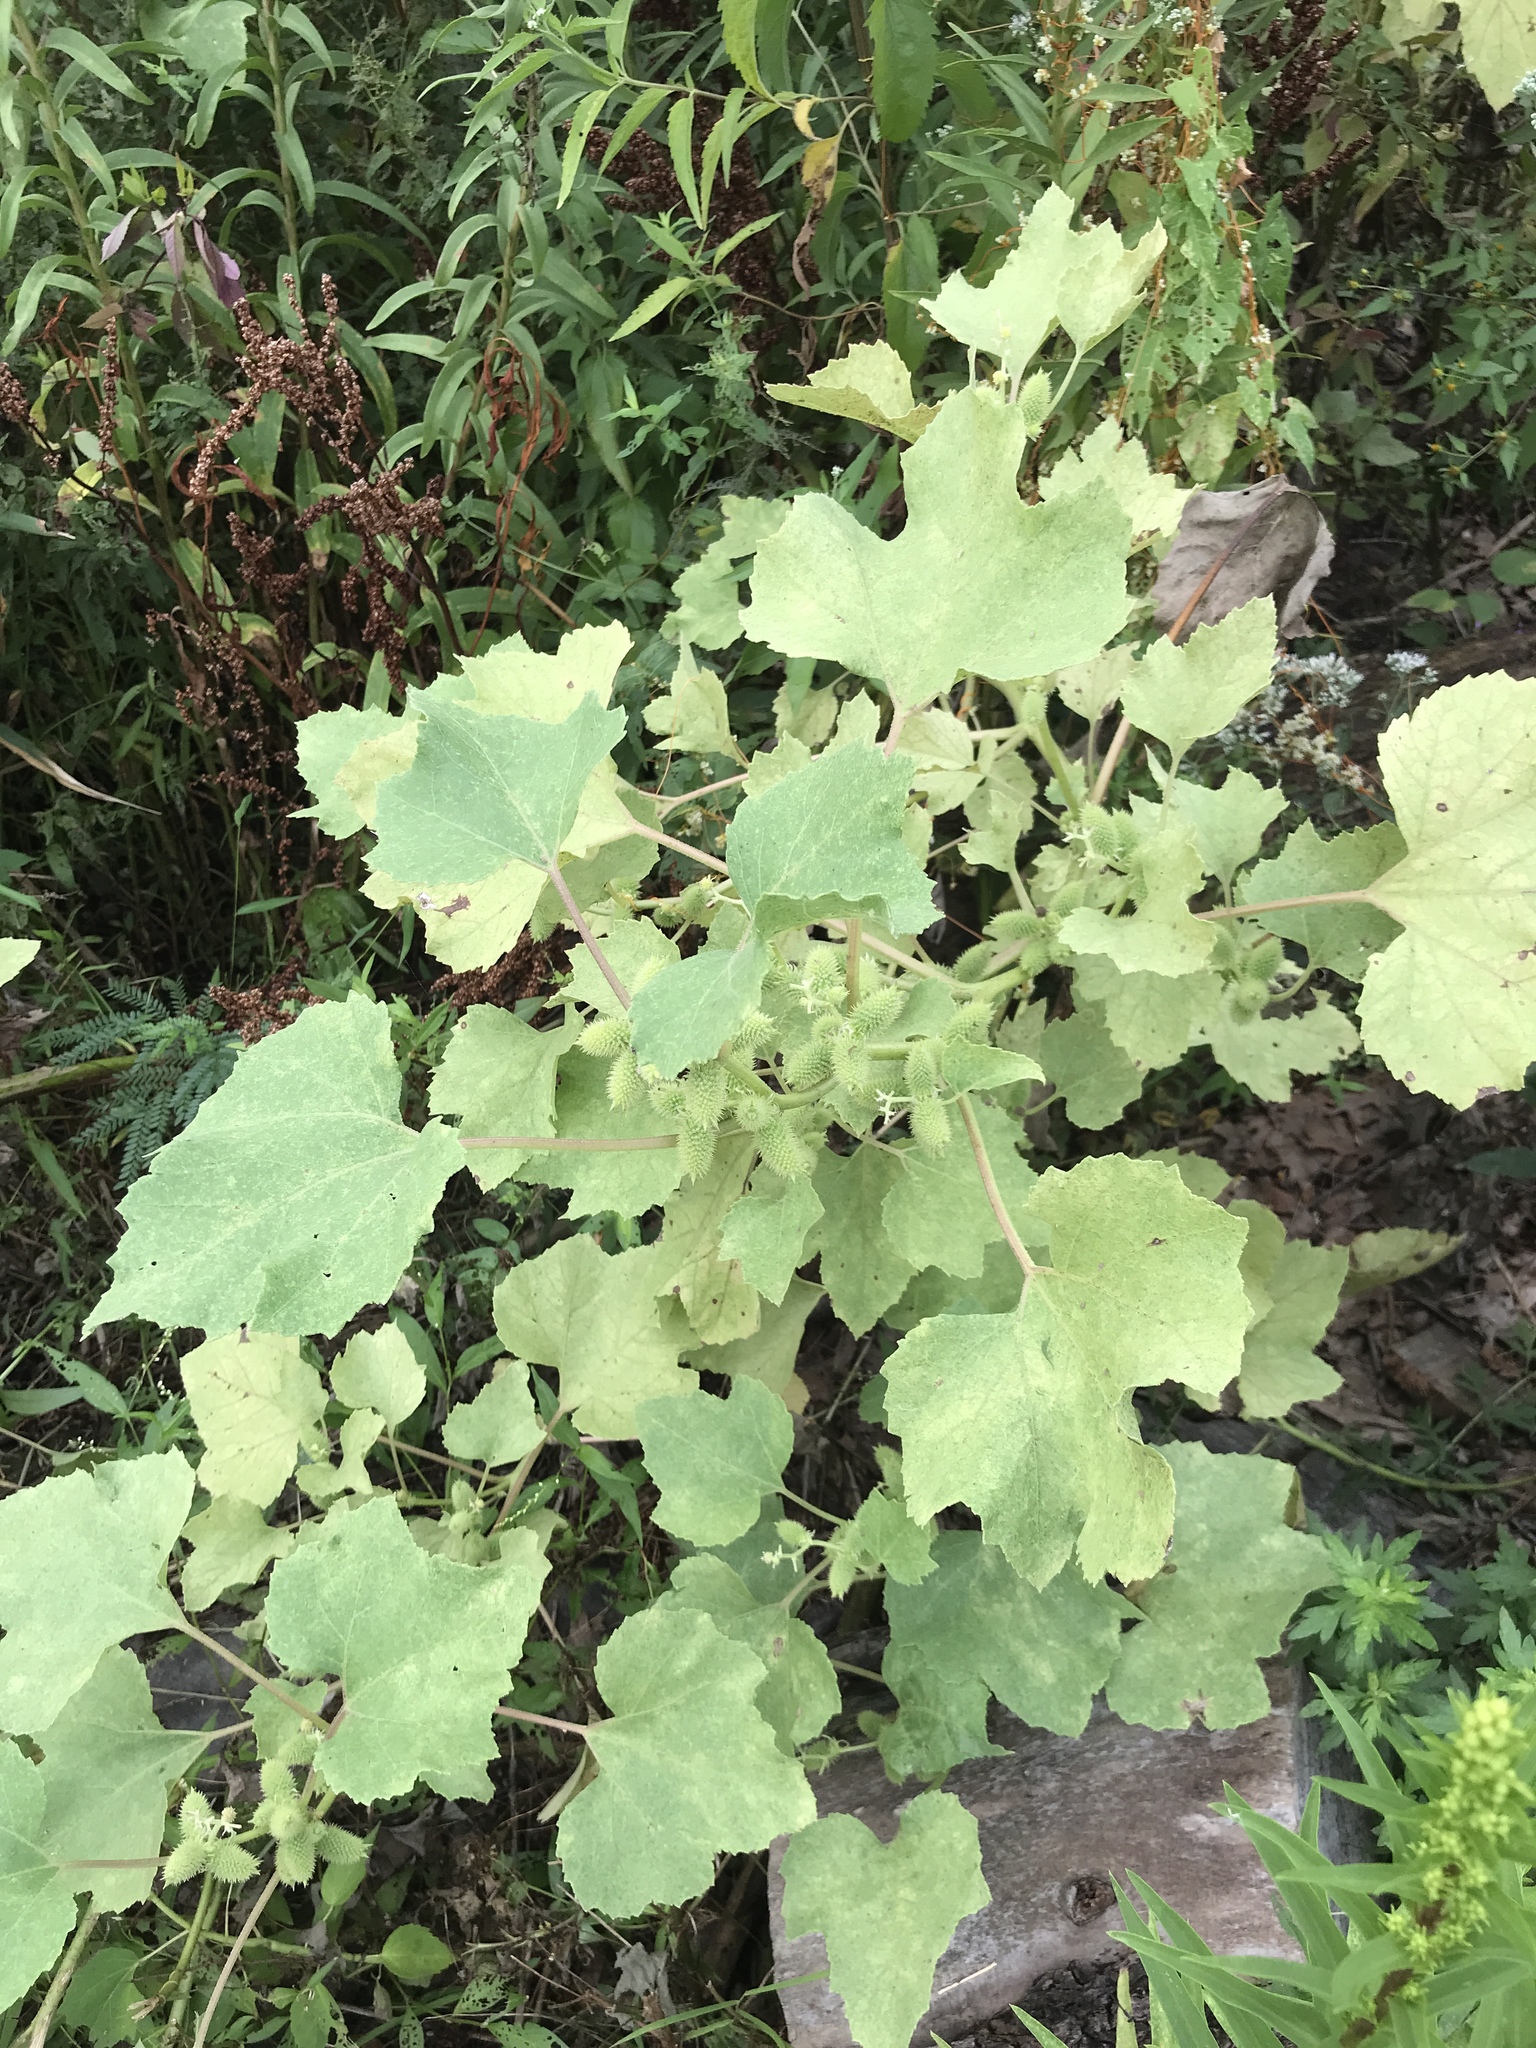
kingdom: Plantae
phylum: Tracheophyta
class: Magnoliopsida
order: Asterales
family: Asteraceae
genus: Xanthium
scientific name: Xanthium strumarium
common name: Rough cocklebur
